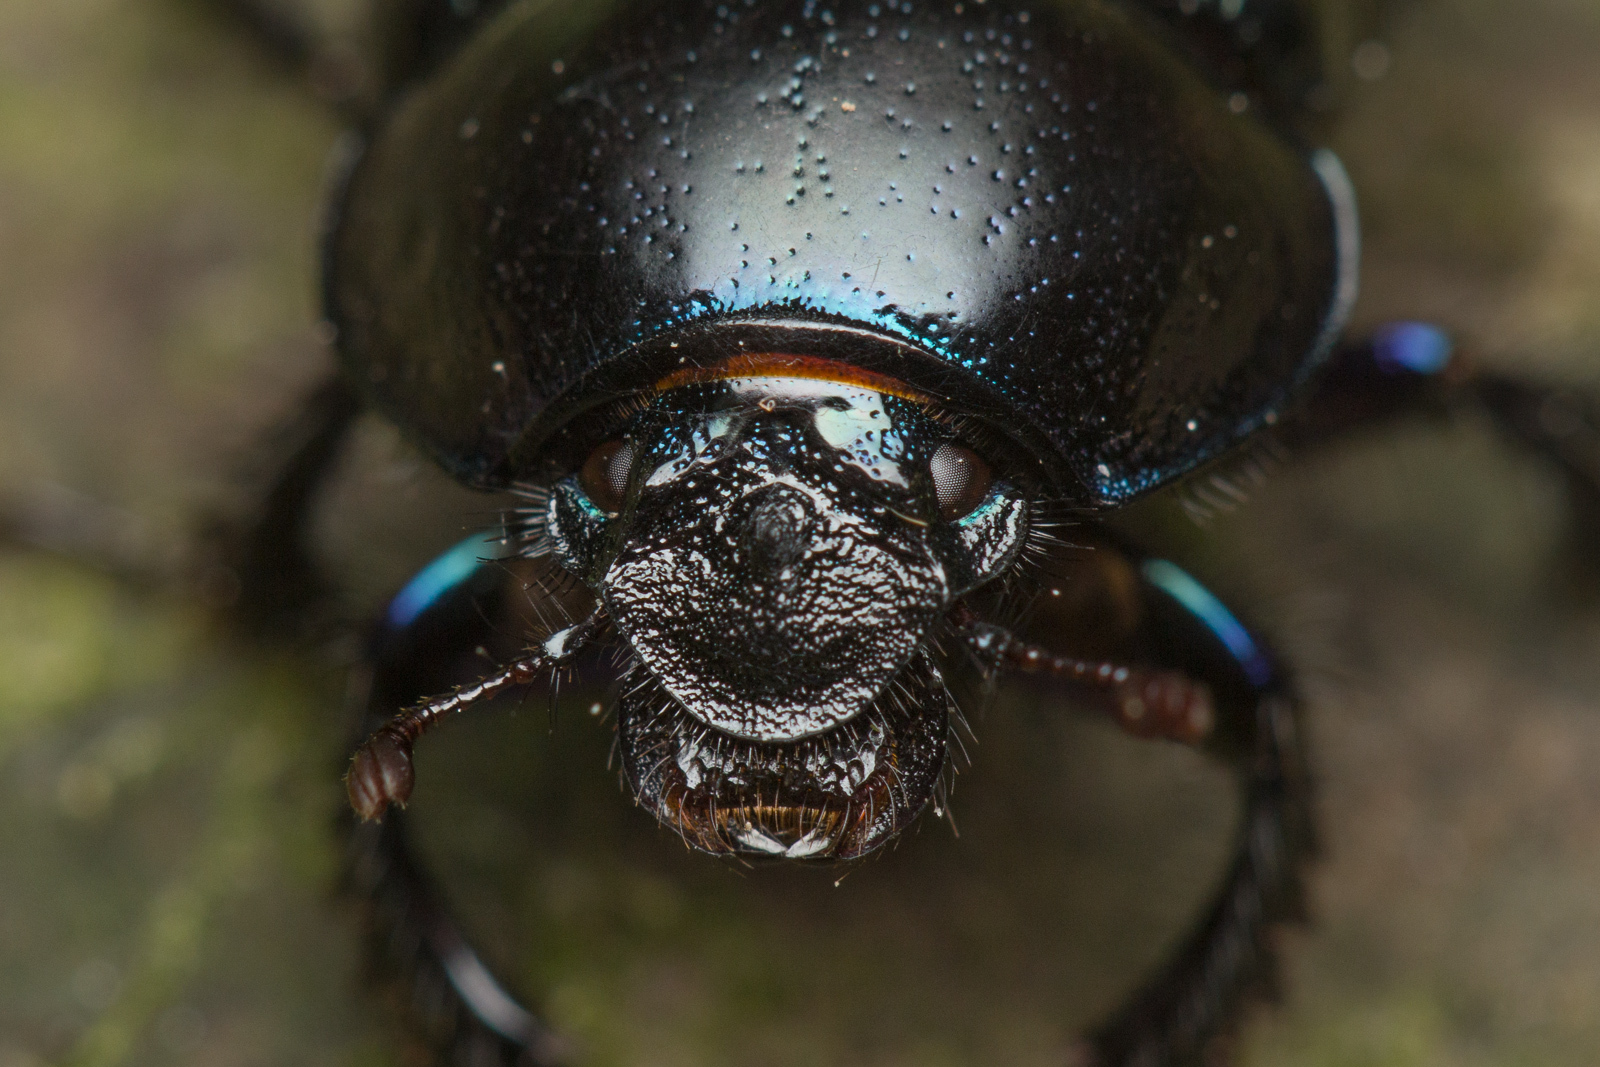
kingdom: Animalia
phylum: Arthropoda
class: Insecta
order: Coleoptera
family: Geotrupidae
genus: Anoplotrupes
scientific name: Anoplotrupes stercorosus
